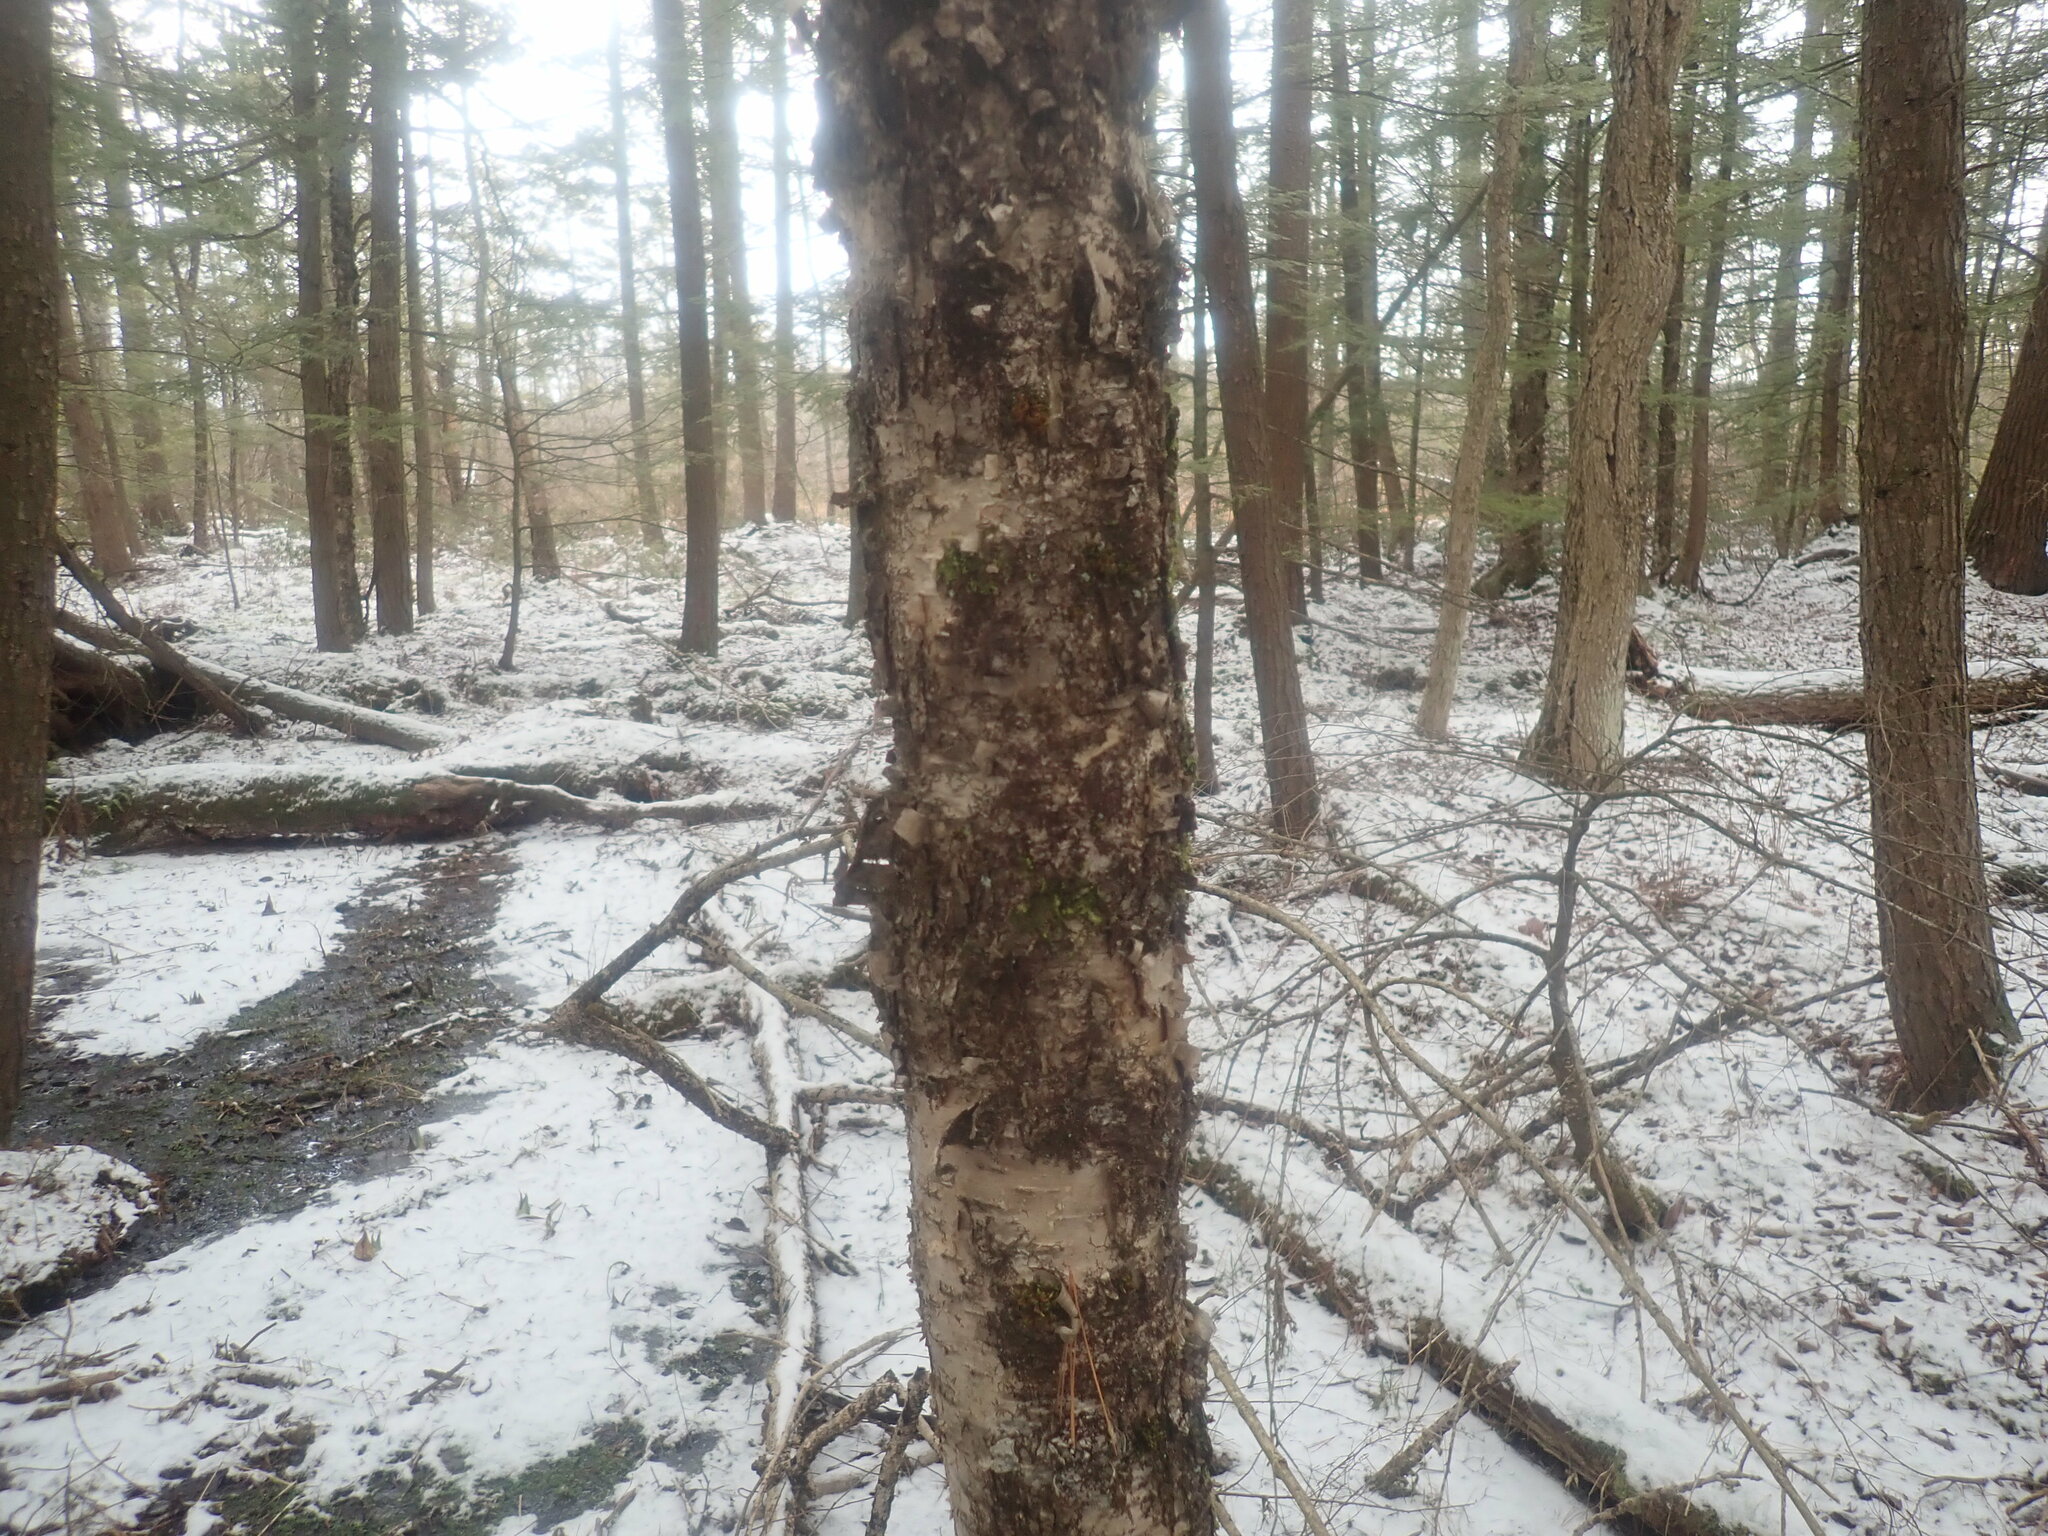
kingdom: Plantae
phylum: Tracheophyta
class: Magnoliopsida
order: Fagales
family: Betulaceae
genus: Betula
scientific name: Betula alleghaniensis
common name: Yellow birch
